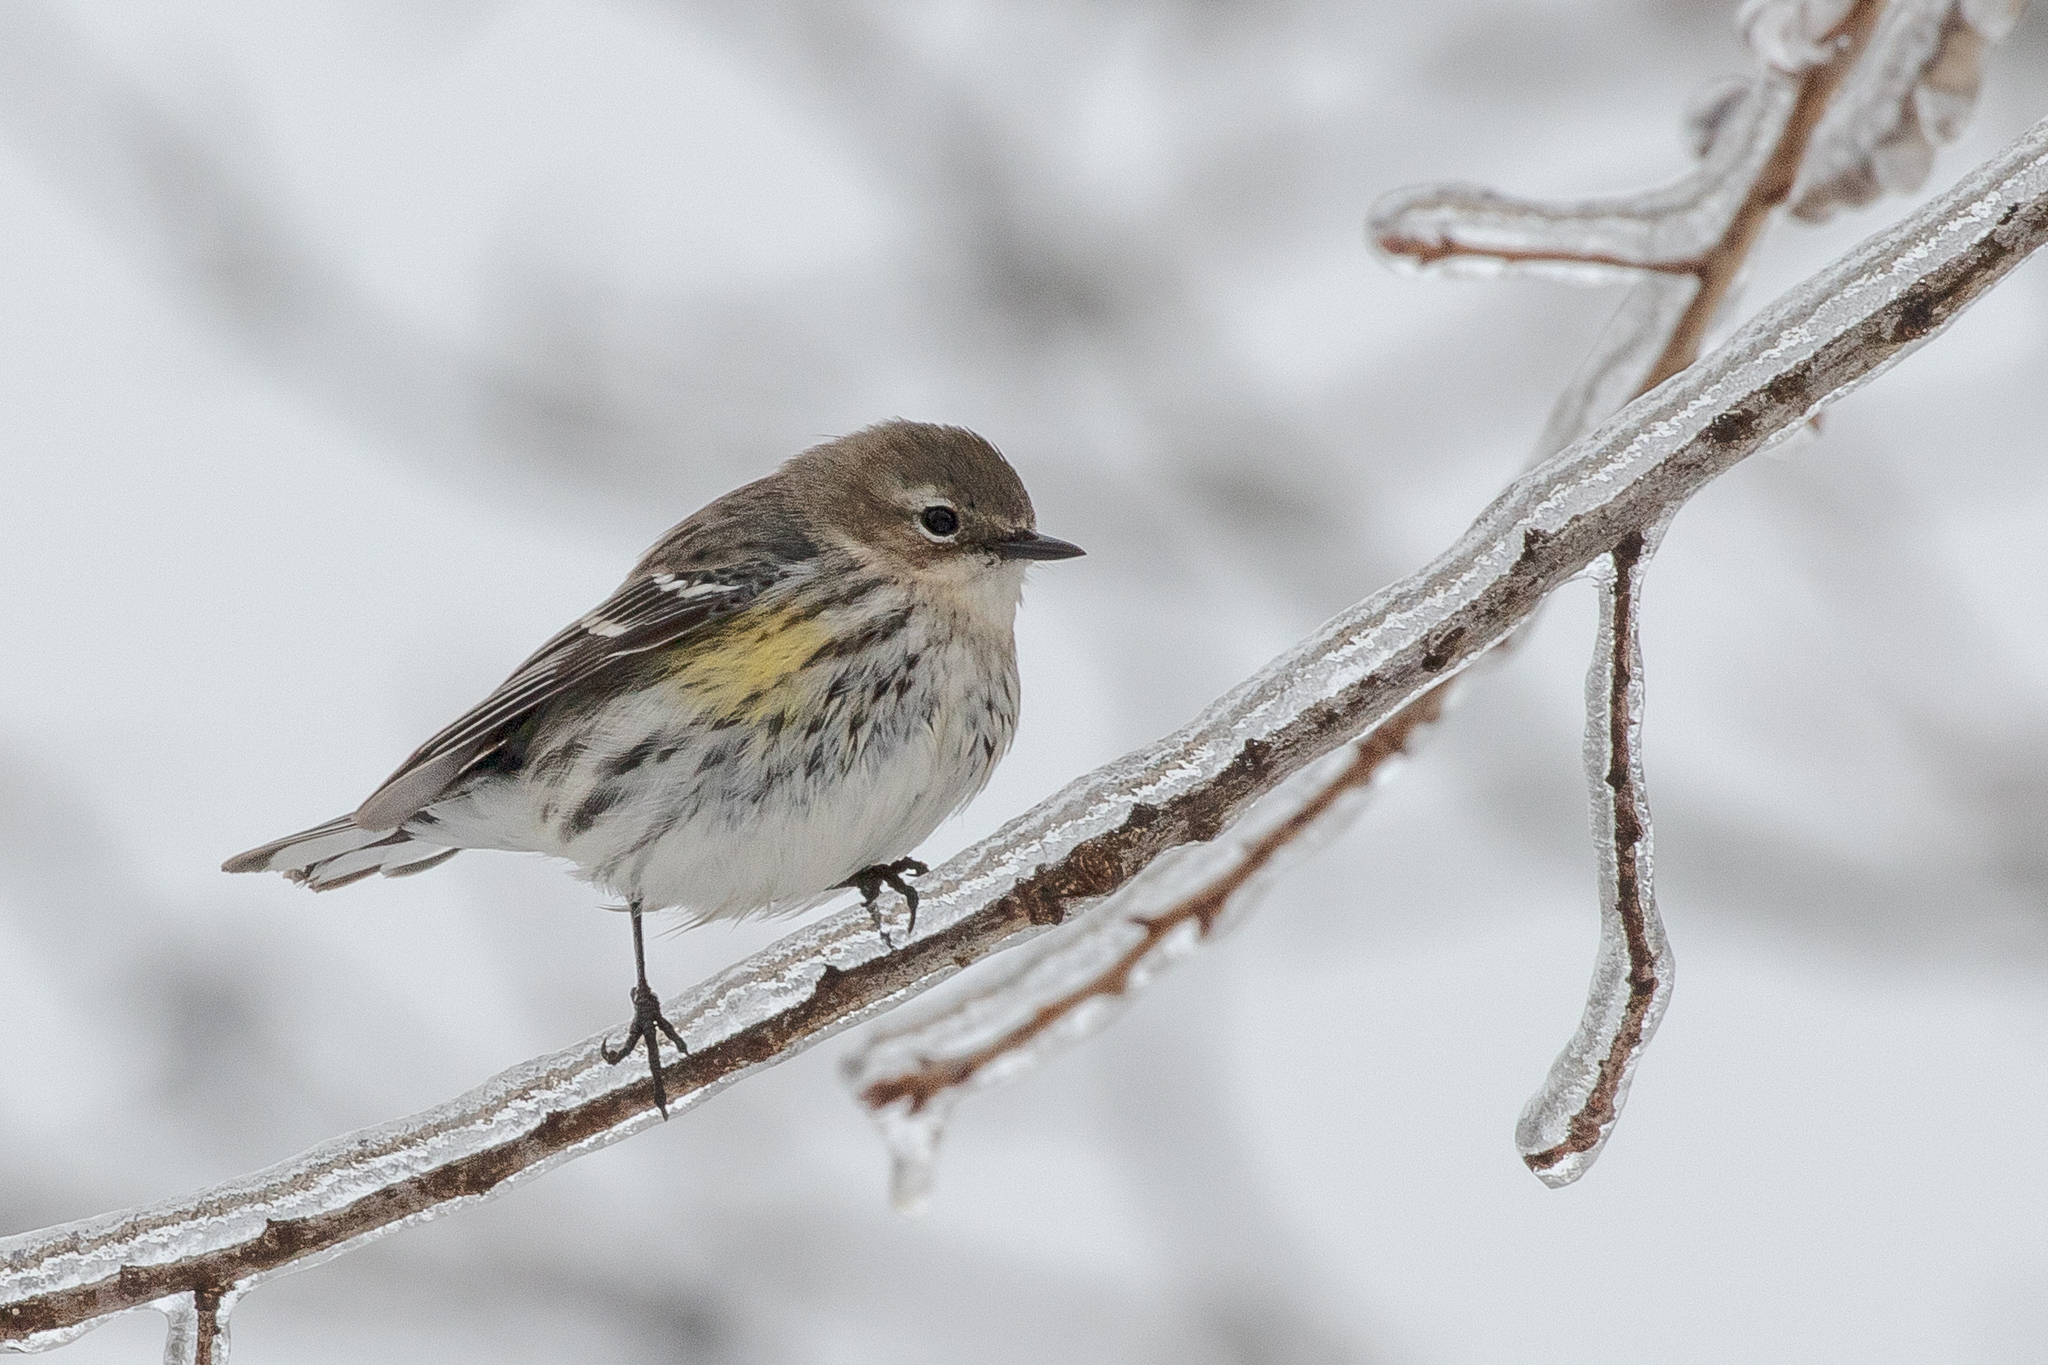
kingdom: Animalia
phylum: Chordata
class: Aves
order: Passeriformes
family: Parulidae
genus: Setophaga
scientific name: Setophaga coronata
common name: Myrtle warbler
